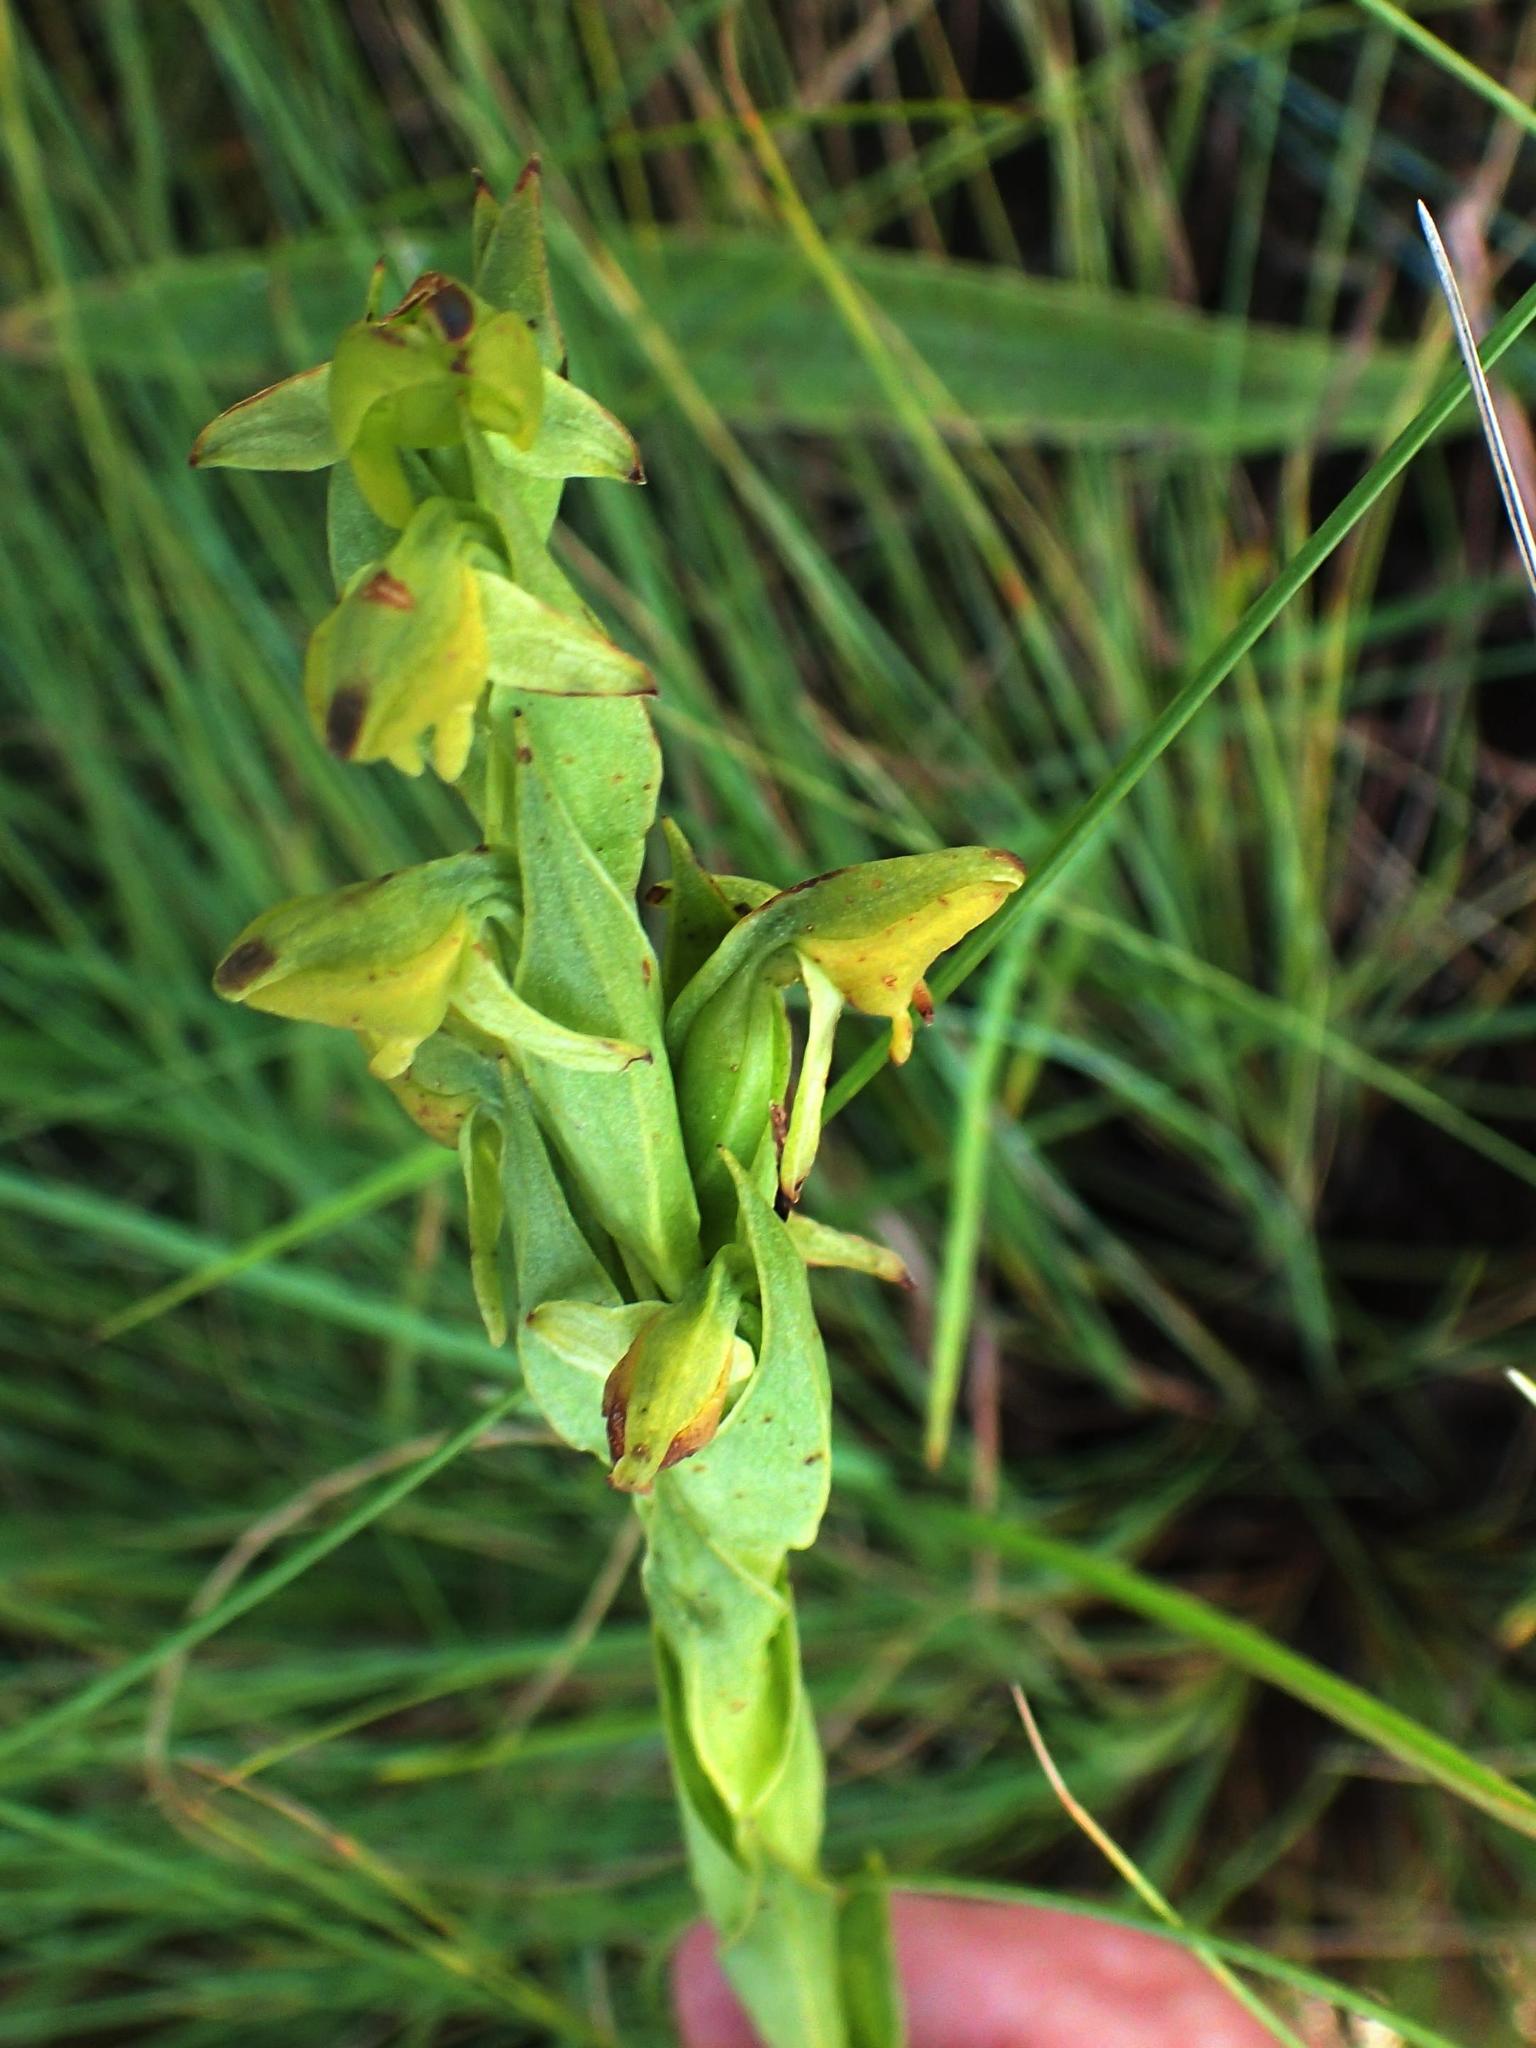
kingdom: Plantae
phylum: Tracheophyta
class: Liliopsida
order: Asparagales
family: Orchidaceae
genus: Habenaria
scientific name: Habenaria laevigata
